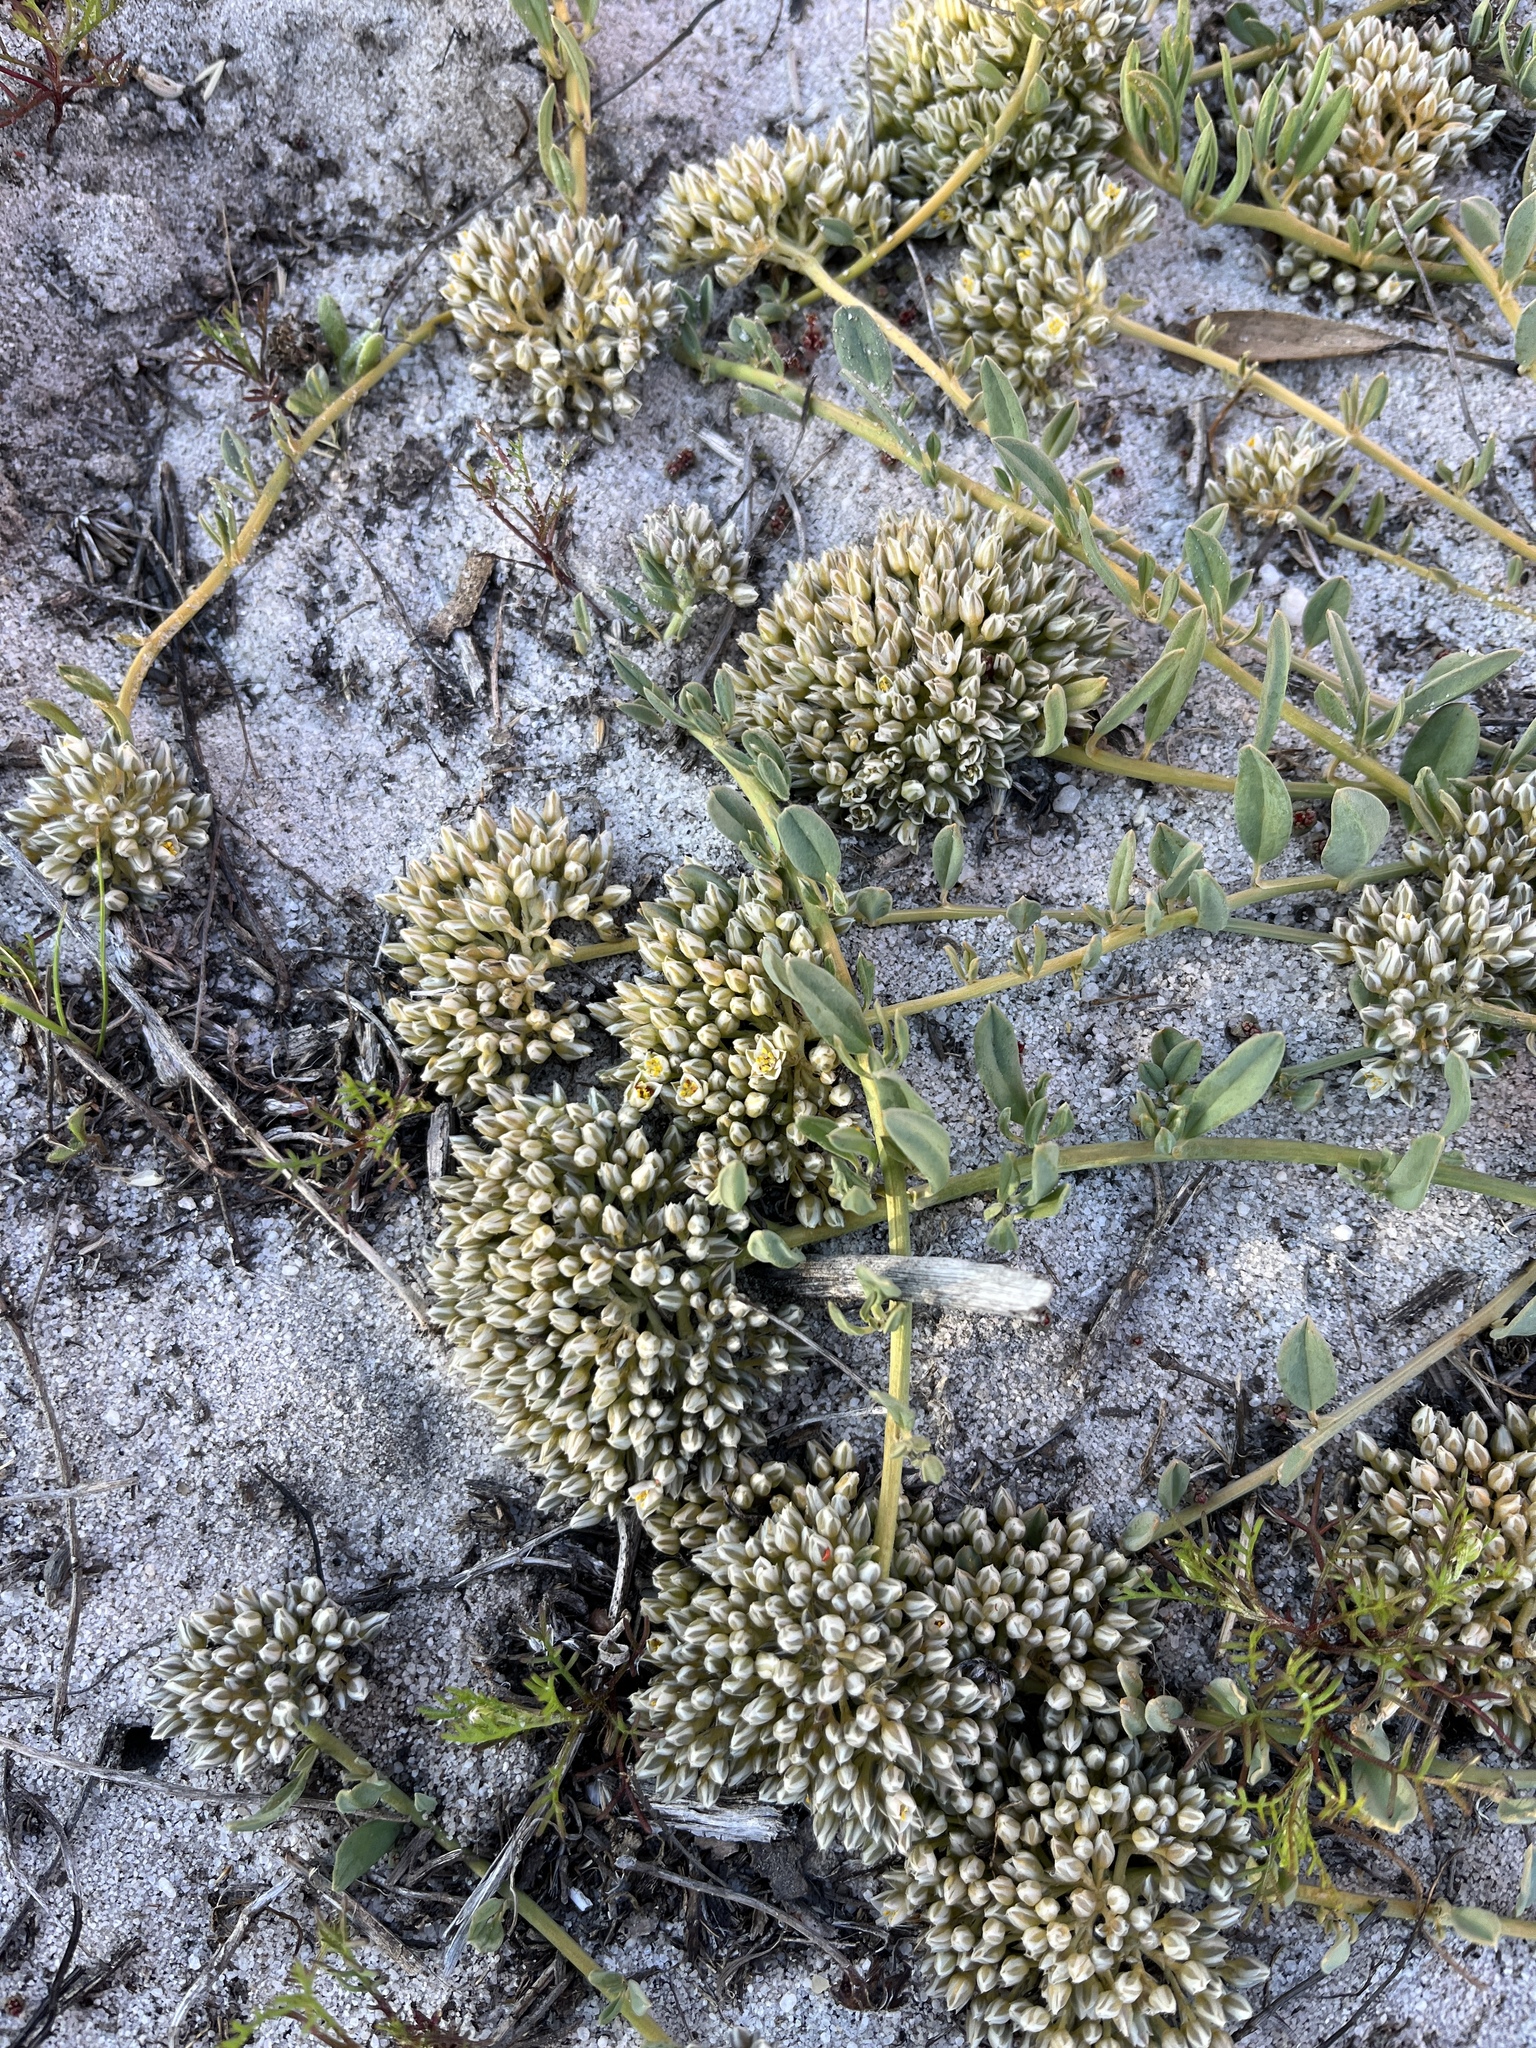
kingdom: Plantae
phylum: Tracheophyta
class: Magnoliopsida
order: Caryophyllales
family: Limeaceae
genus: Limeum
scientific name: Limeum africanum
